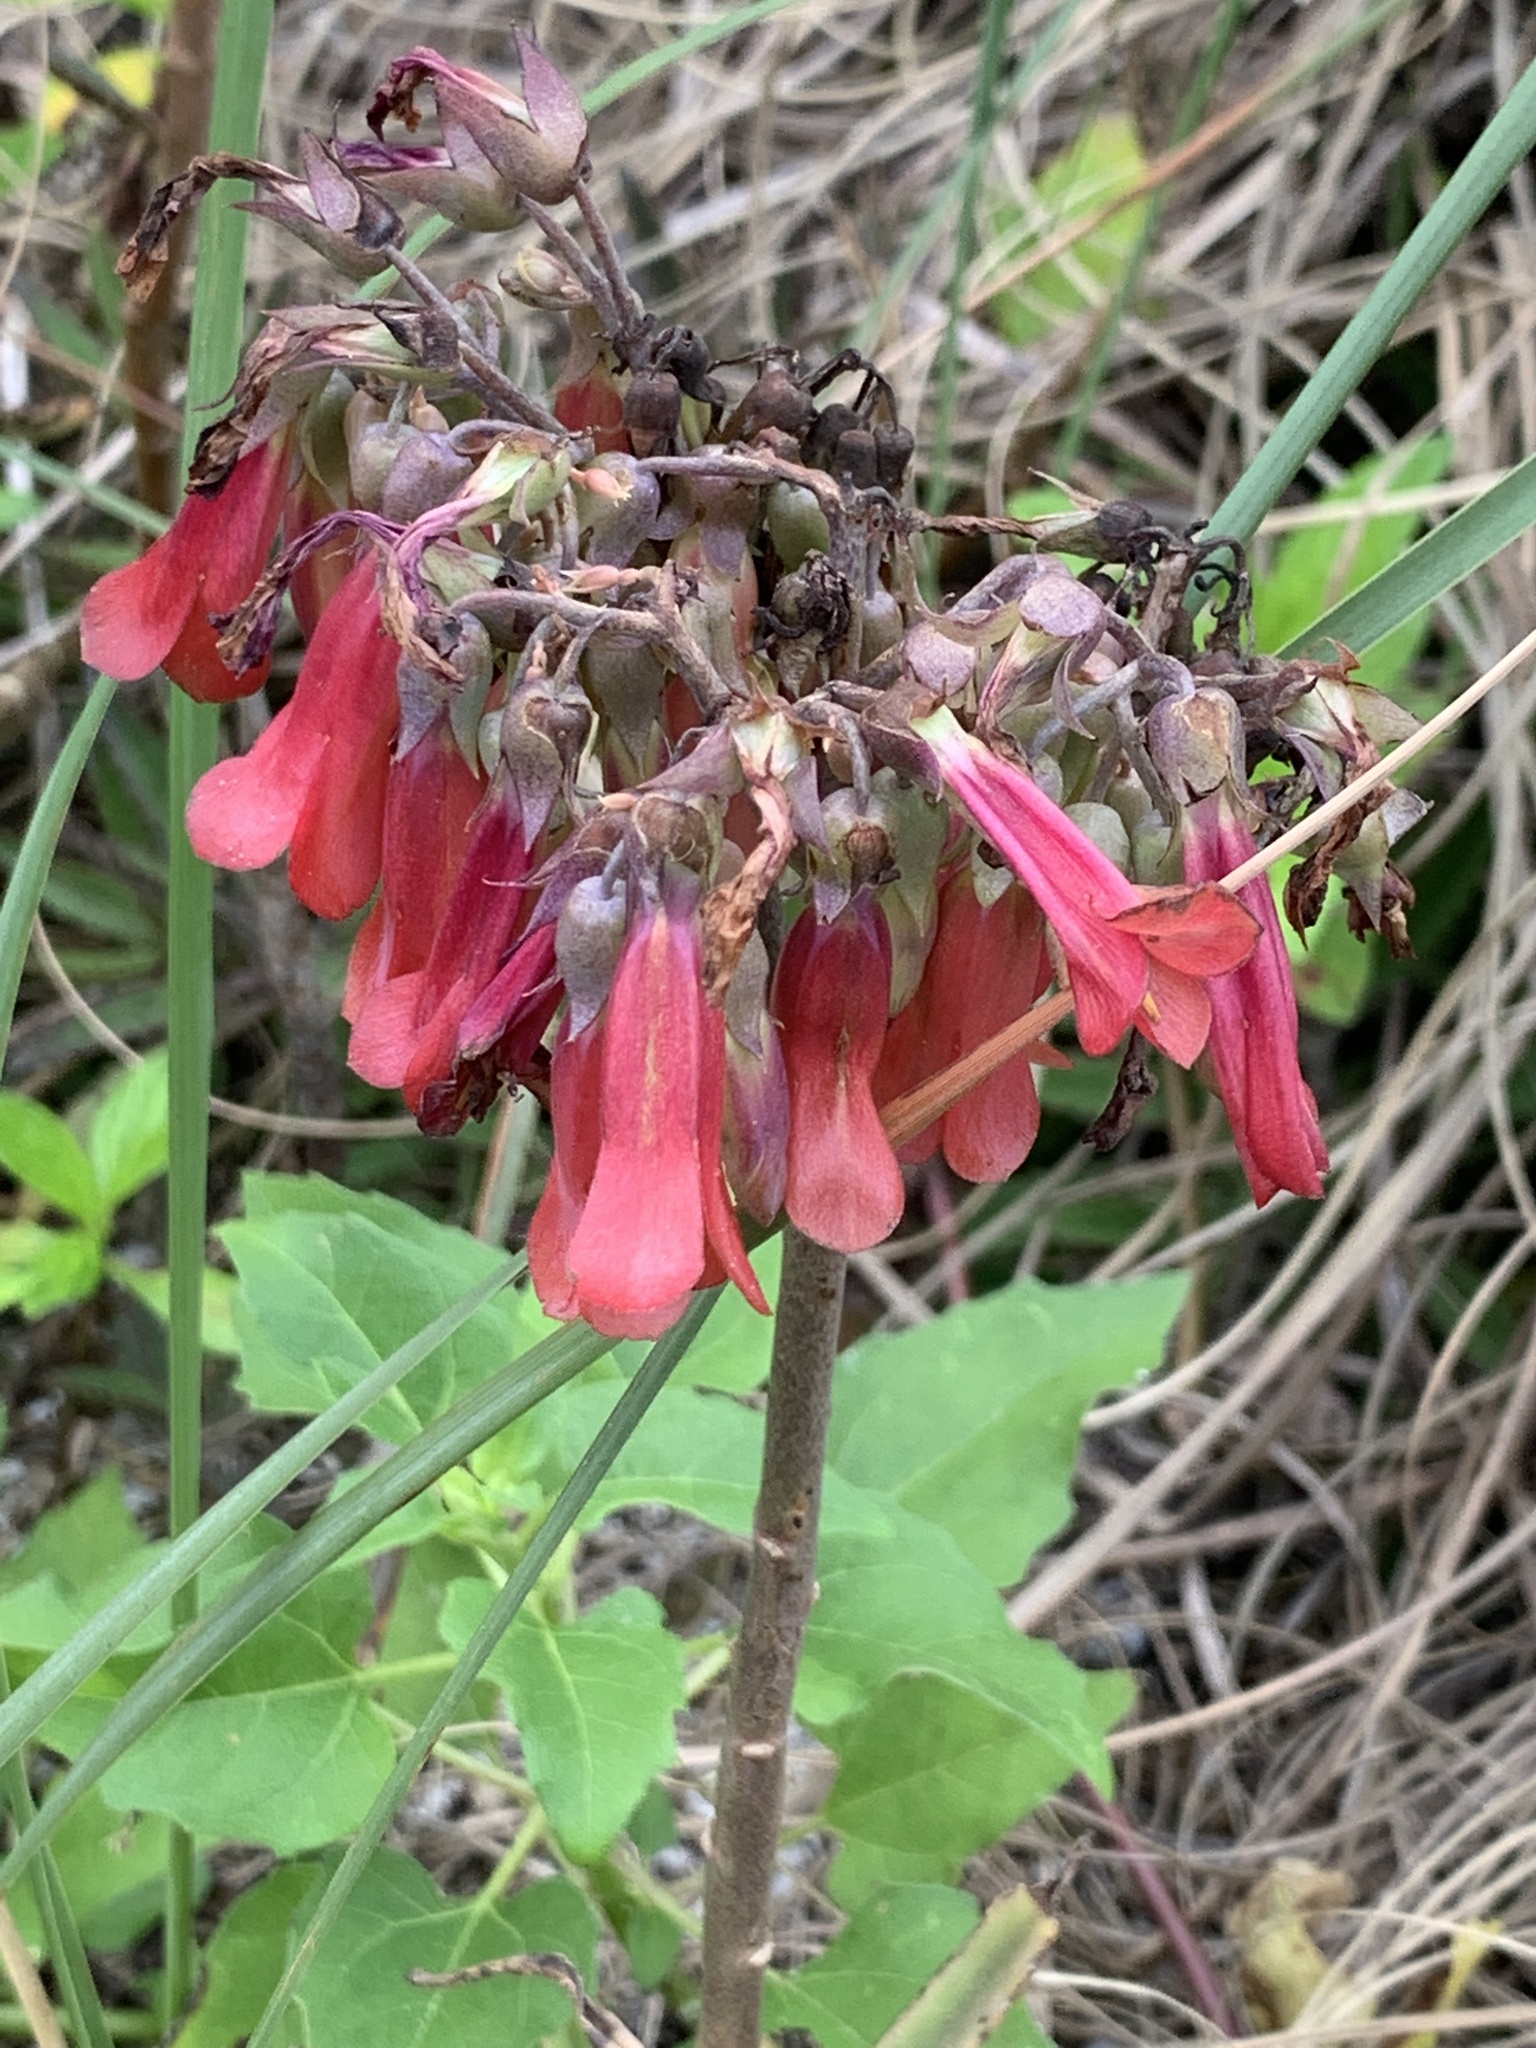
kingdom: Plantae
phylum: Tracheophyta
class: Magnoliopsida
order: Saxifragales
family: Crassulaceae
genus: Kalanchoe
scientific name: Kalanchoe houghtonii
